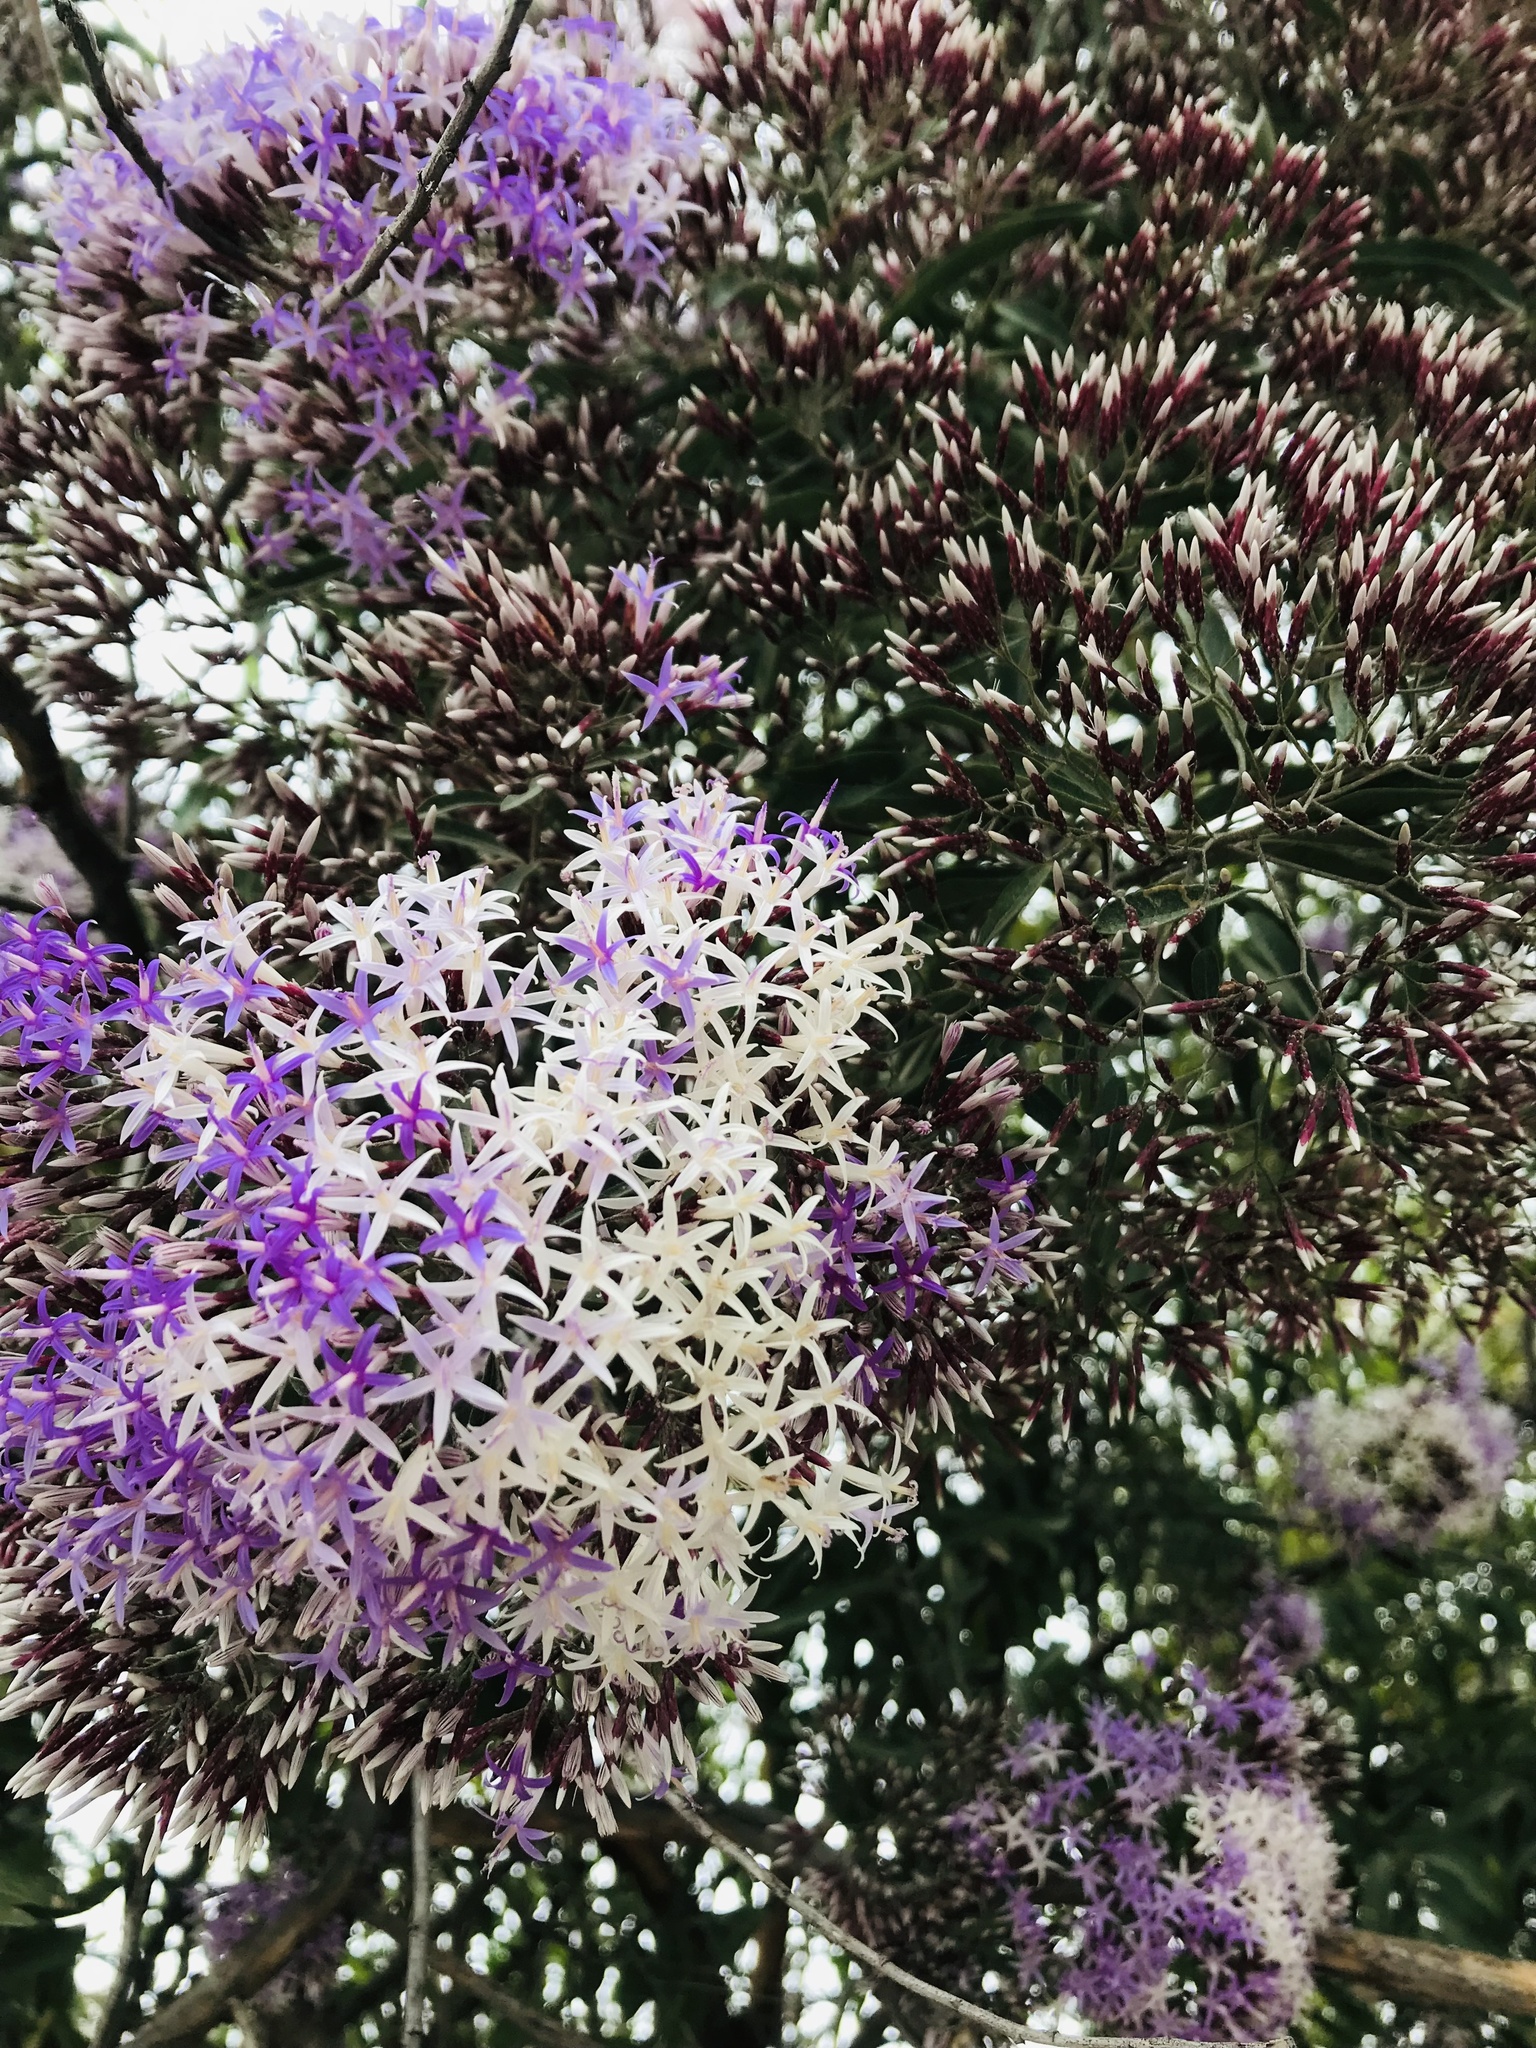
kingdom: Plantae
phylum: Tracheophyta
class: Magnoliopsida
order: Asterales
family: Asteraceae
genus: Eremosis
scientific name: Eremosis corymbosa
